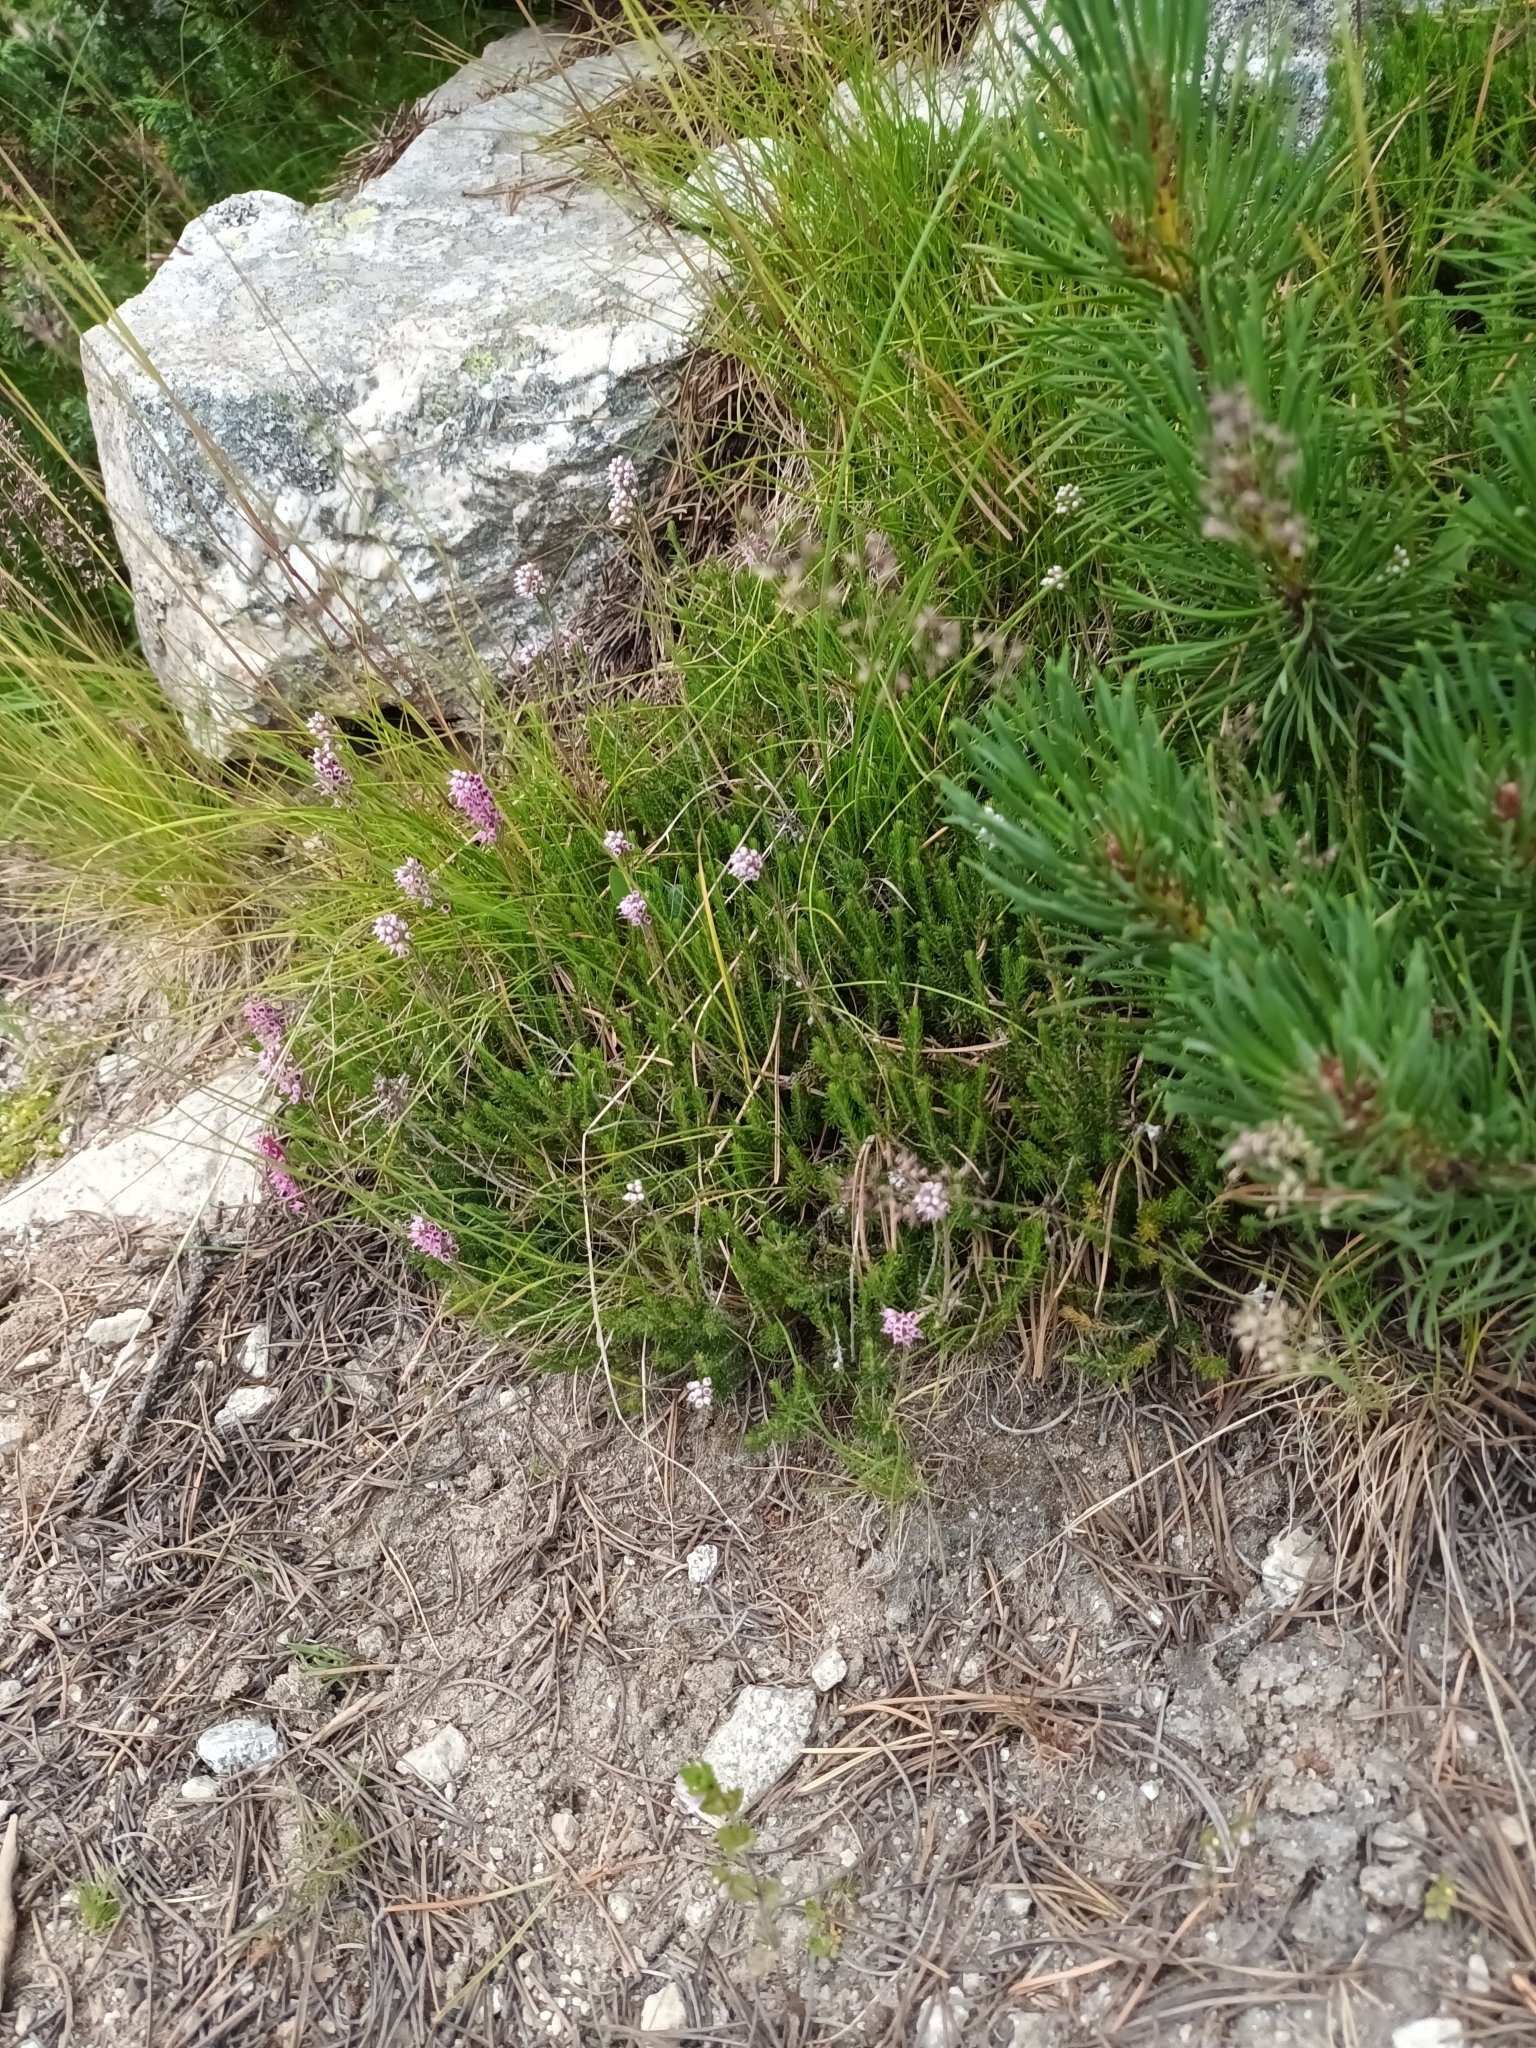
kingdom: Plantae
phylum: Tracheophyta
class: Magnoliopsida
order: Ericales
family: Ericaceae
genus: Erica
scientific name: Erica spiculifolia
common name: Spike heath
